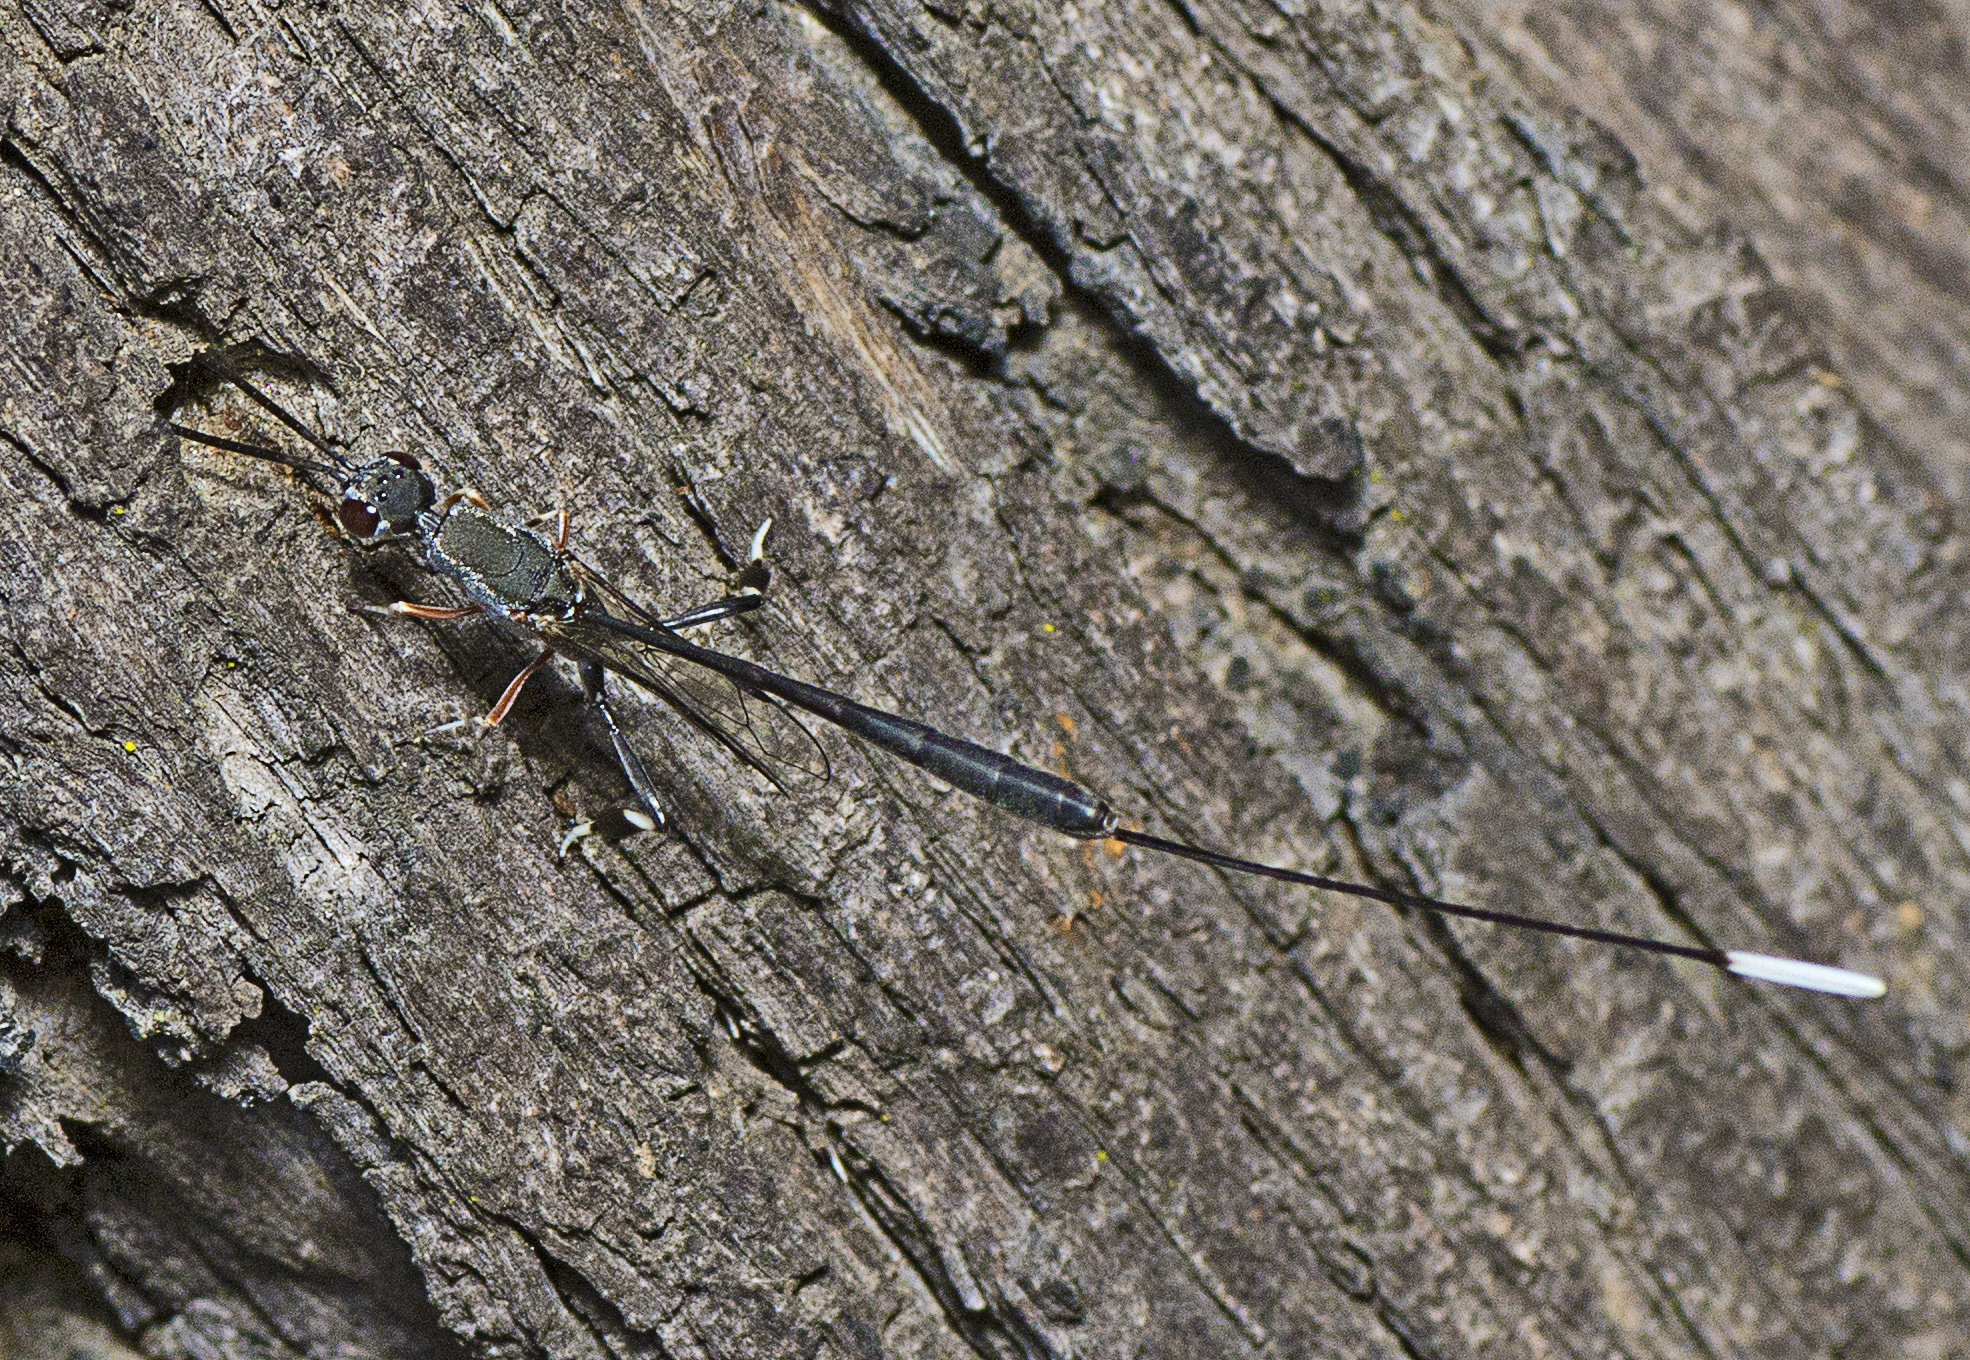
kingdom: Animalia
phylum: Arthropoda
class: Insecta
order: Hymenoptera
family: Gasteruptiidae
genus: Gasteruption
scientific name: Gasteruption
